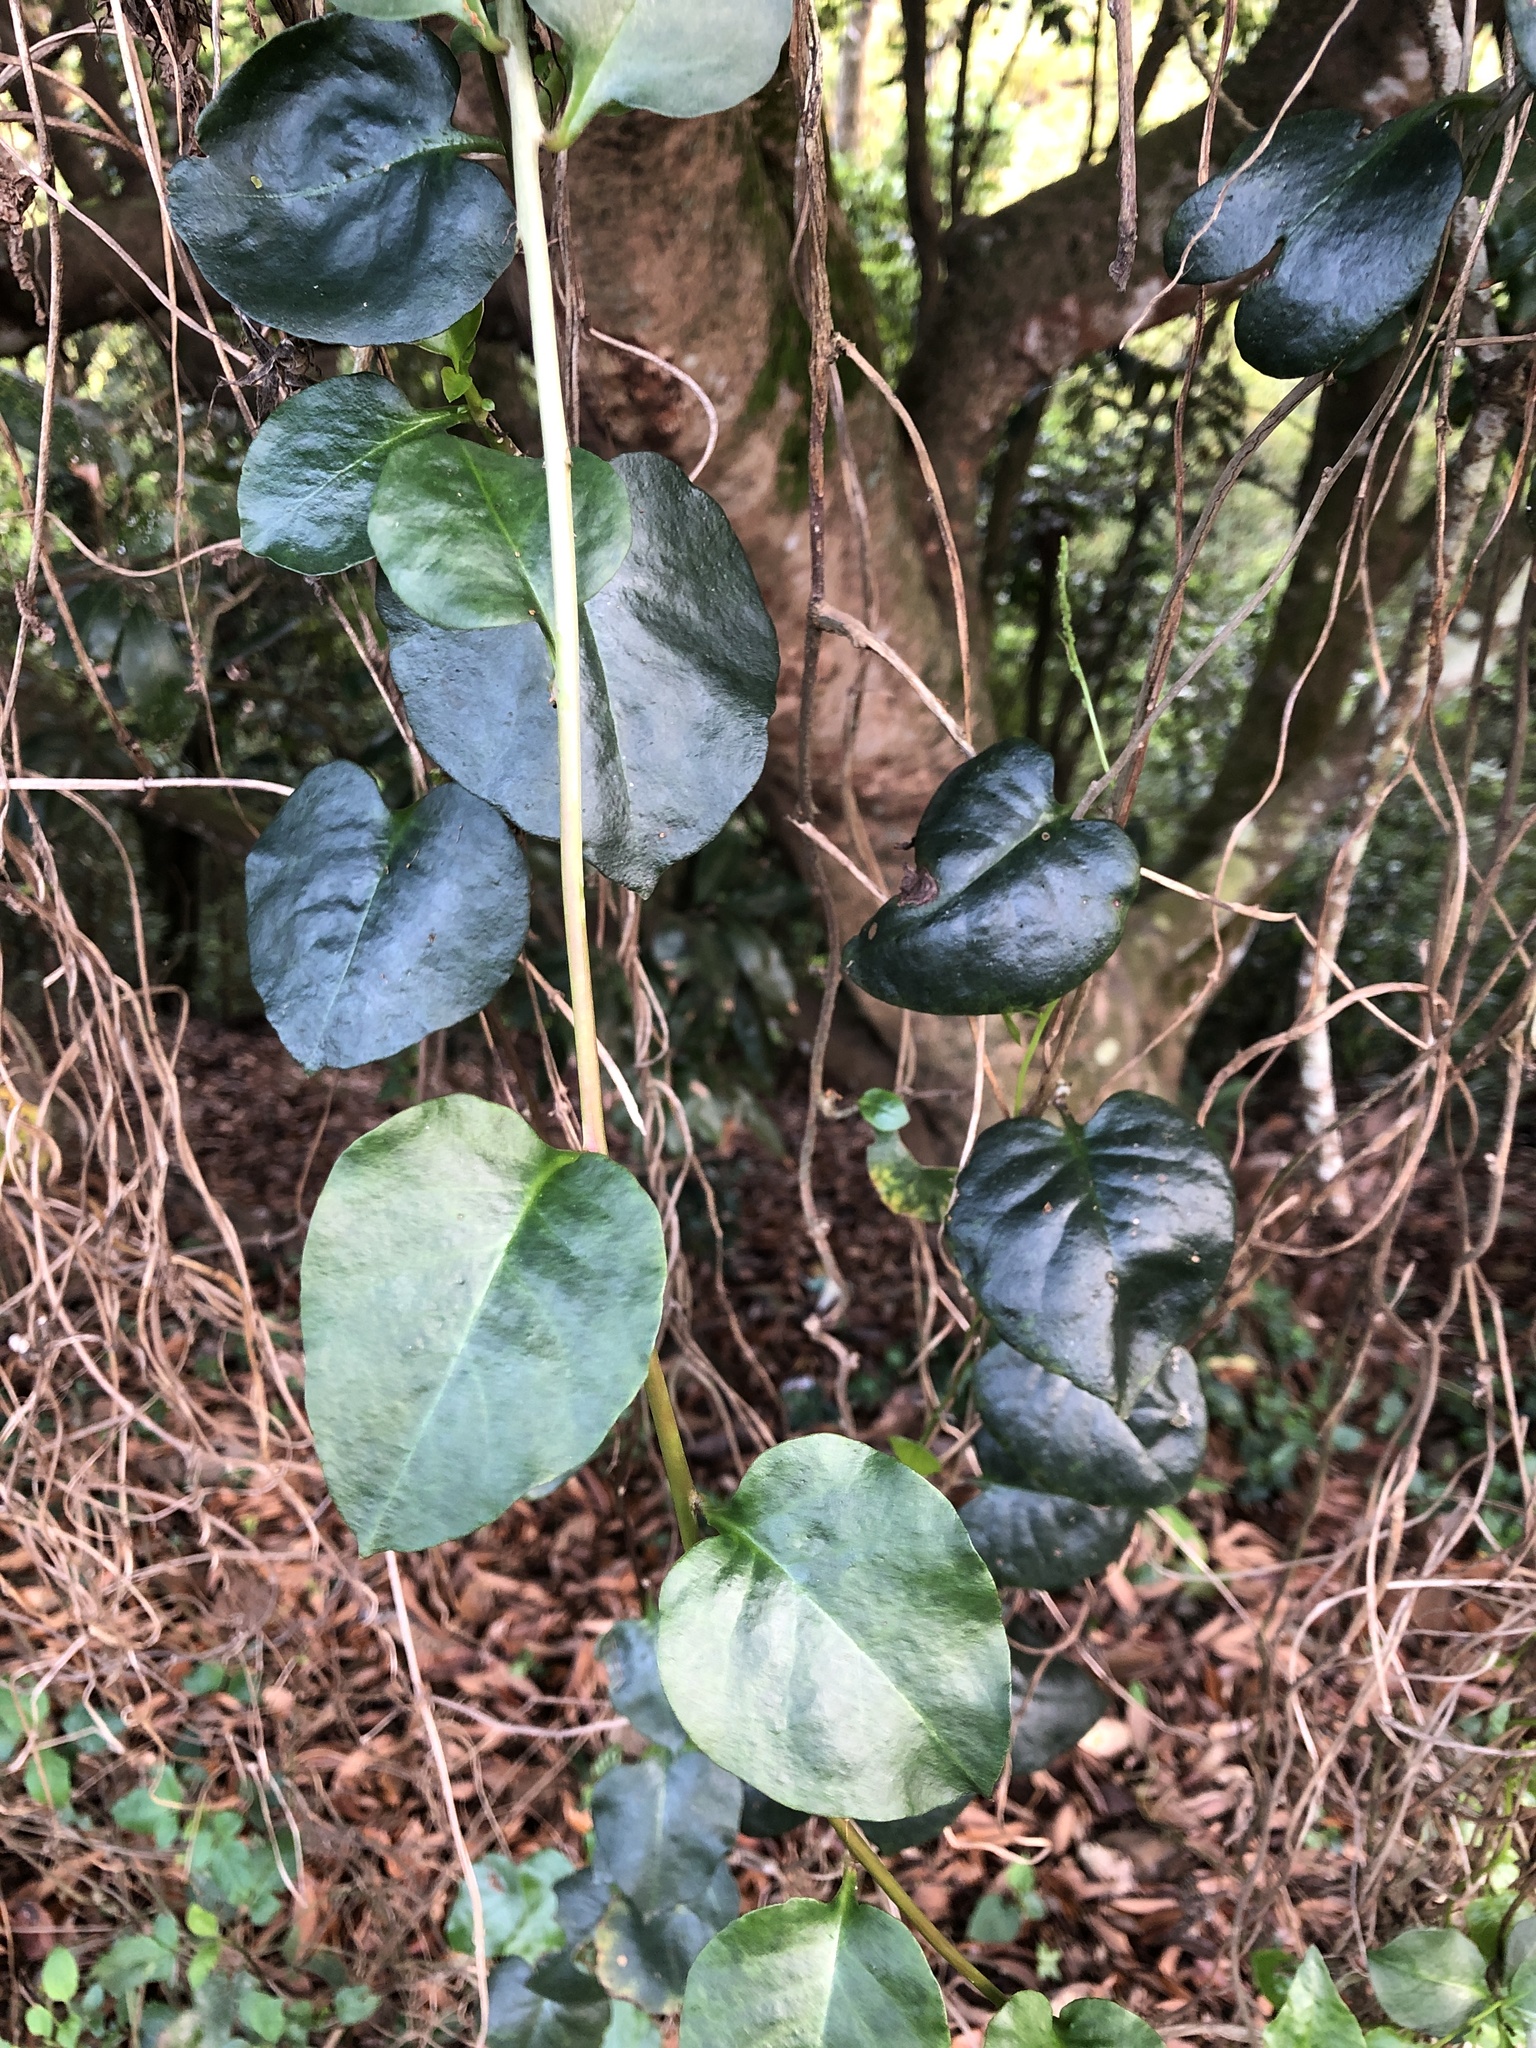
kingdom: Plantae
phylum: Tracheophyta
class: Magnoliopsida
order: Caryophyllales
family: Basellaceae
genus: Anredera
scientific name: Anredera cordifolia
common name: Heartleaf madeiravine
